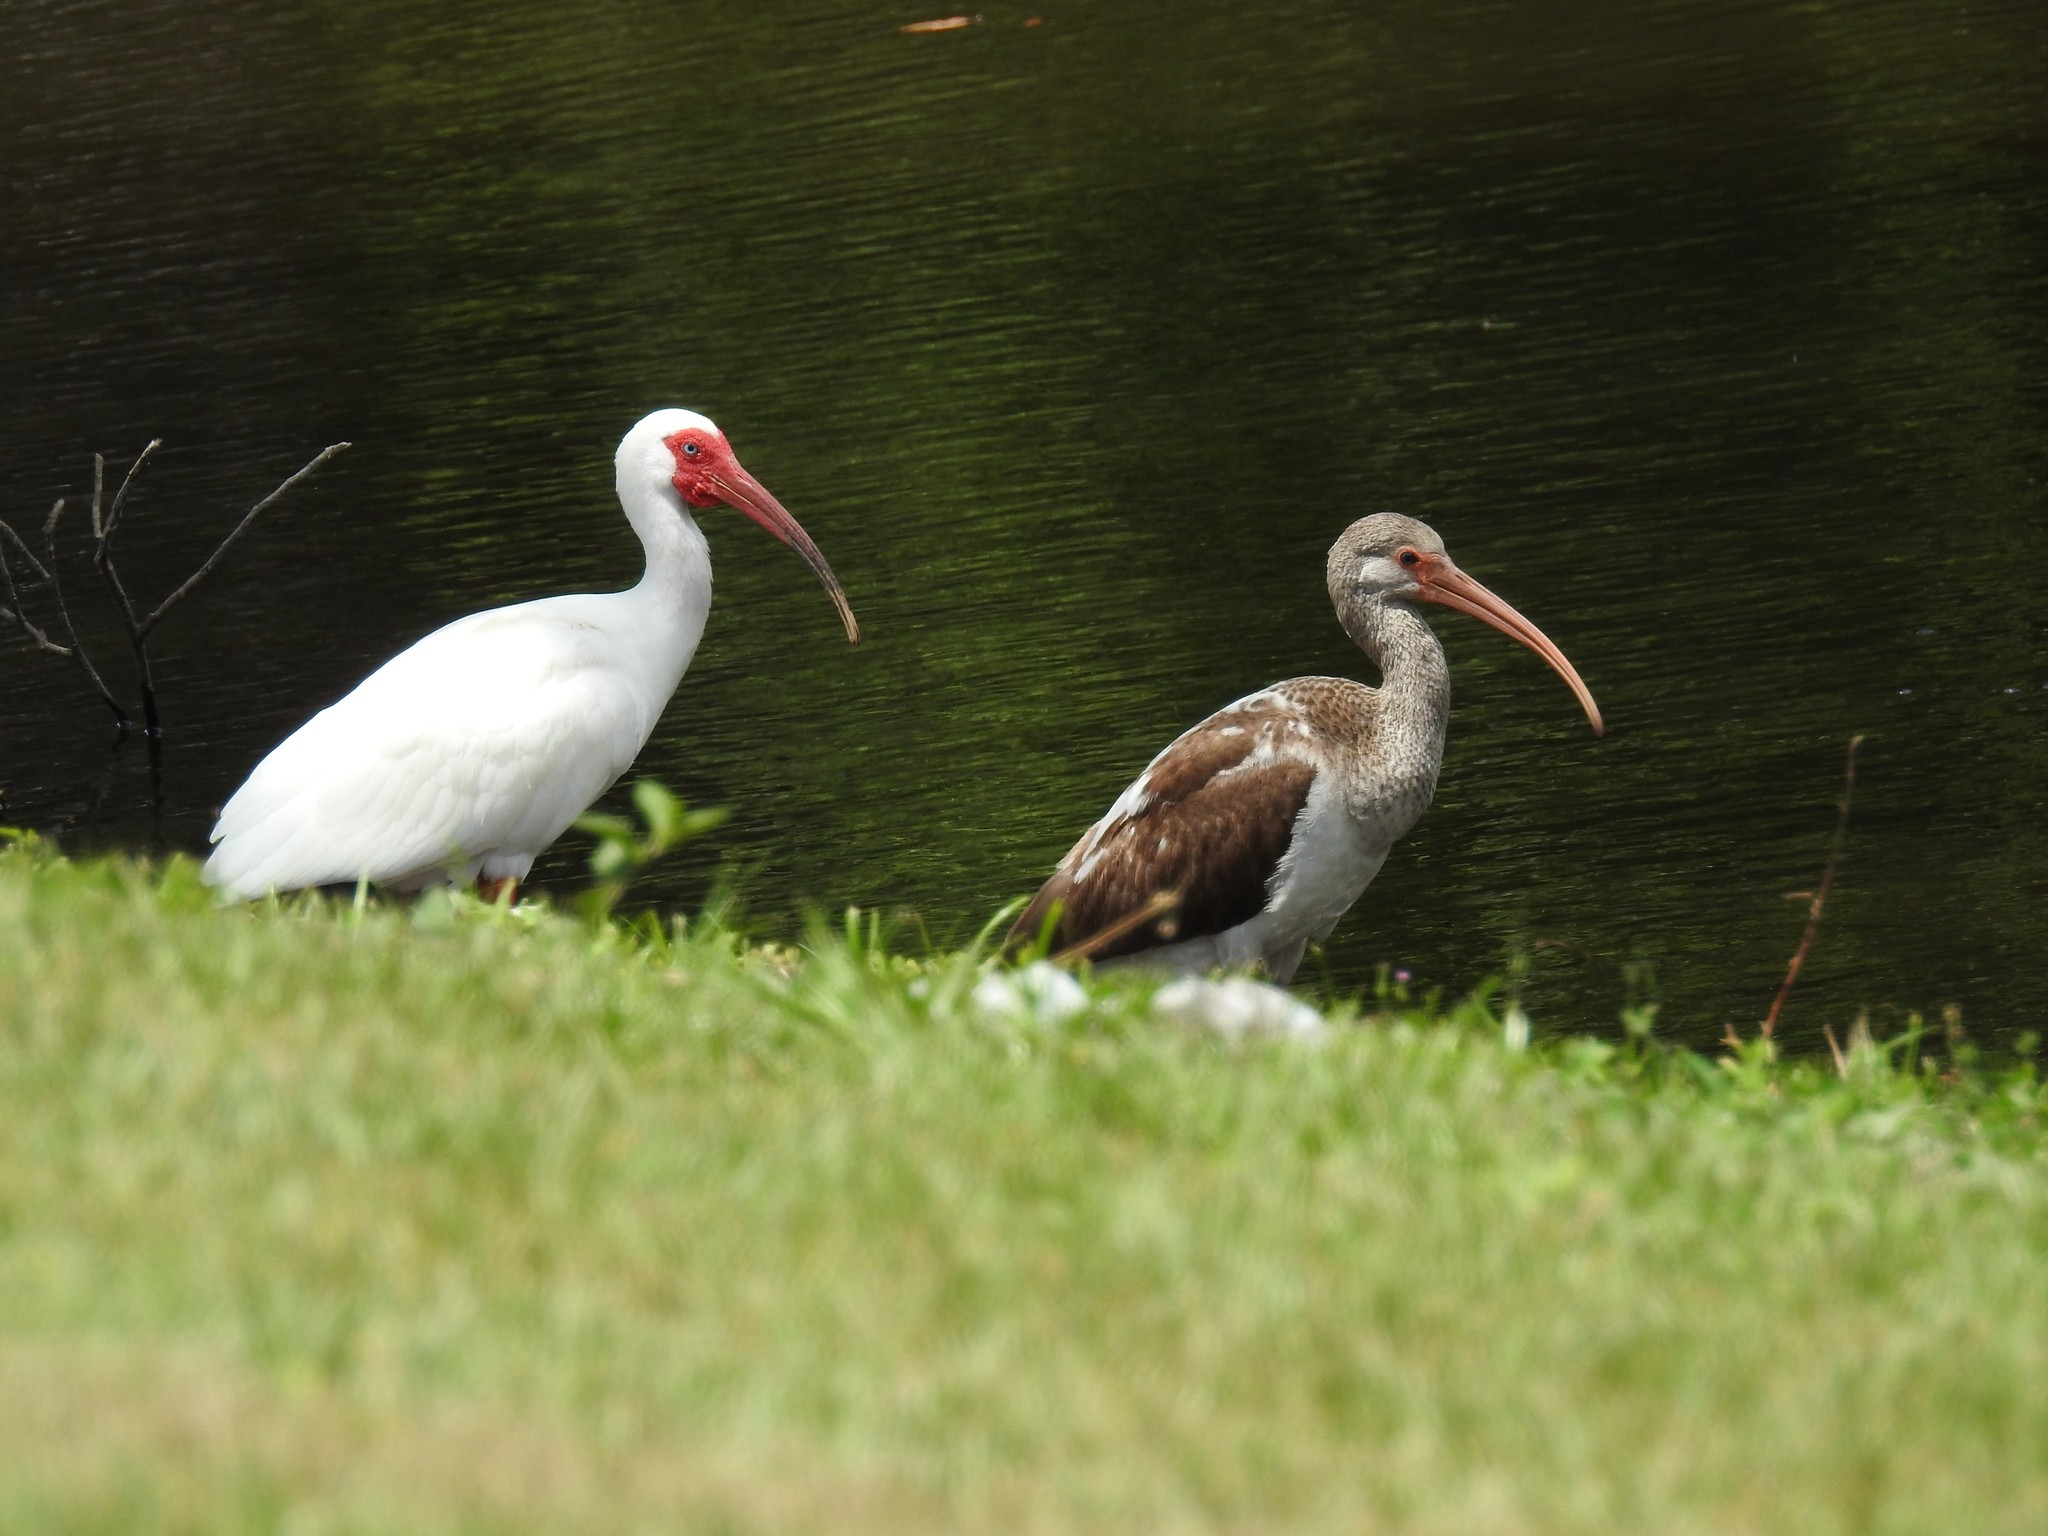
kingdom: Animalia
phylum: Chordata
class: Aves
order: Pelecaniformes
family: Threskiornithidae
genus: Eudocimus
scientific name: Eudocimus albus
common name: White ibis
